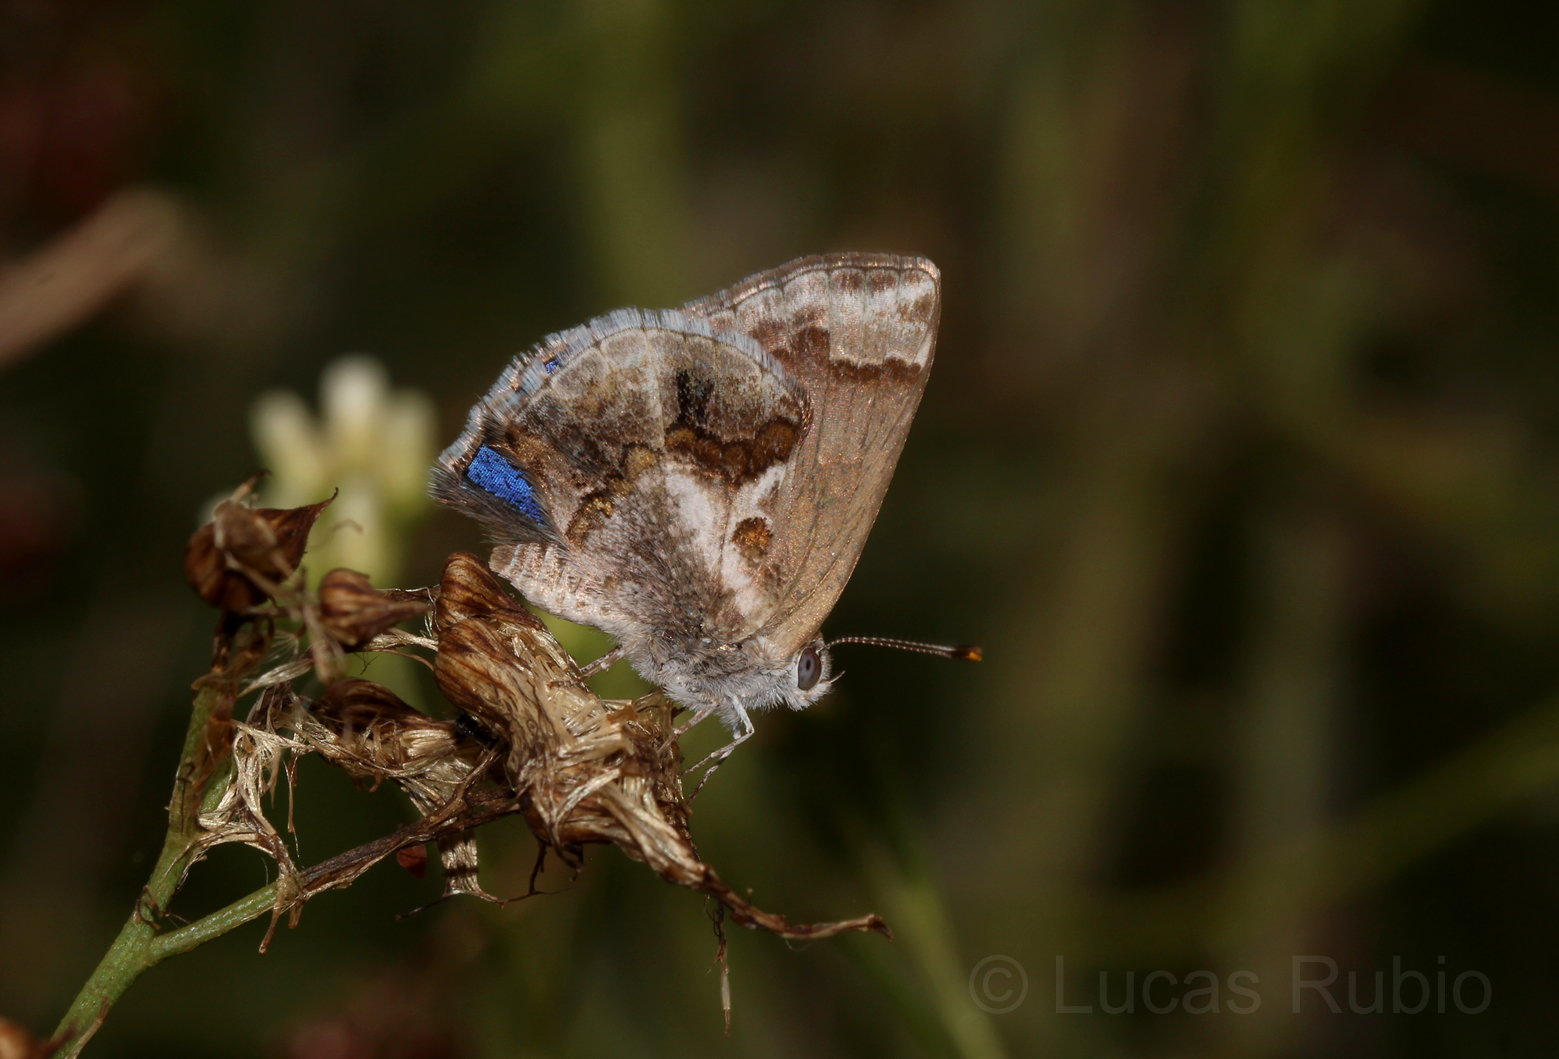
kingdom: Animalia
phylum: Arthropoda
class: Insecta
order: Lepidoptera
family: Lycaenidae
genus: Strymon
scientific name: Strymon bazochii
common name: Lantana scrub-hairstreak
